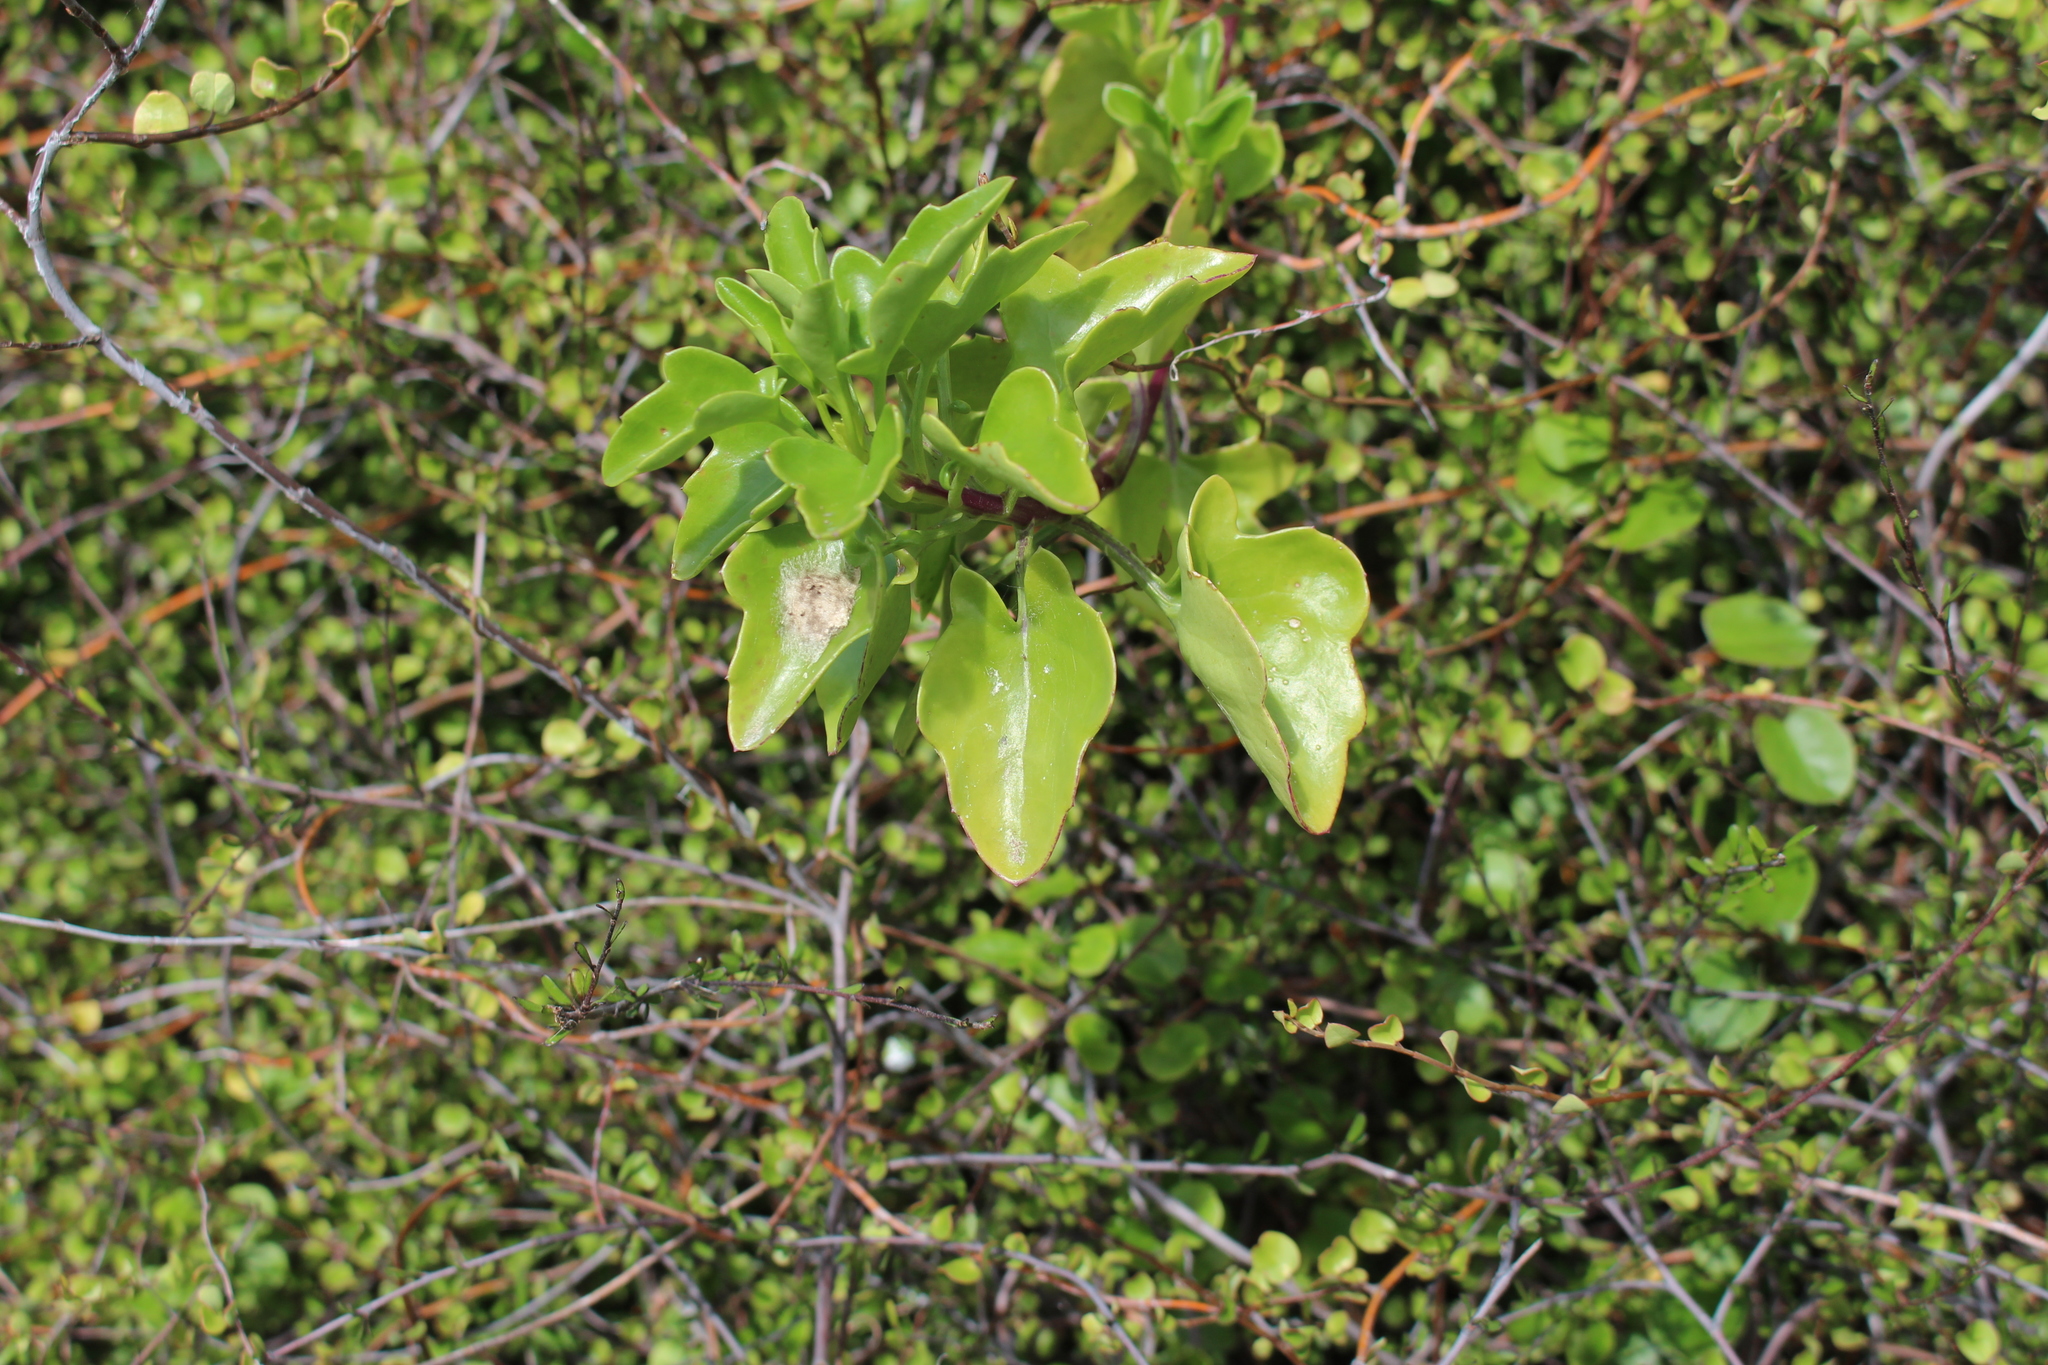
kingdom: Plantae
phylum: Tracheophyta
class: Magnoliopsida
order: Asterales
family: Asteraceae
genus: Senecio
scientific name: Senecio angulatus
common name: Climbing groundsel
